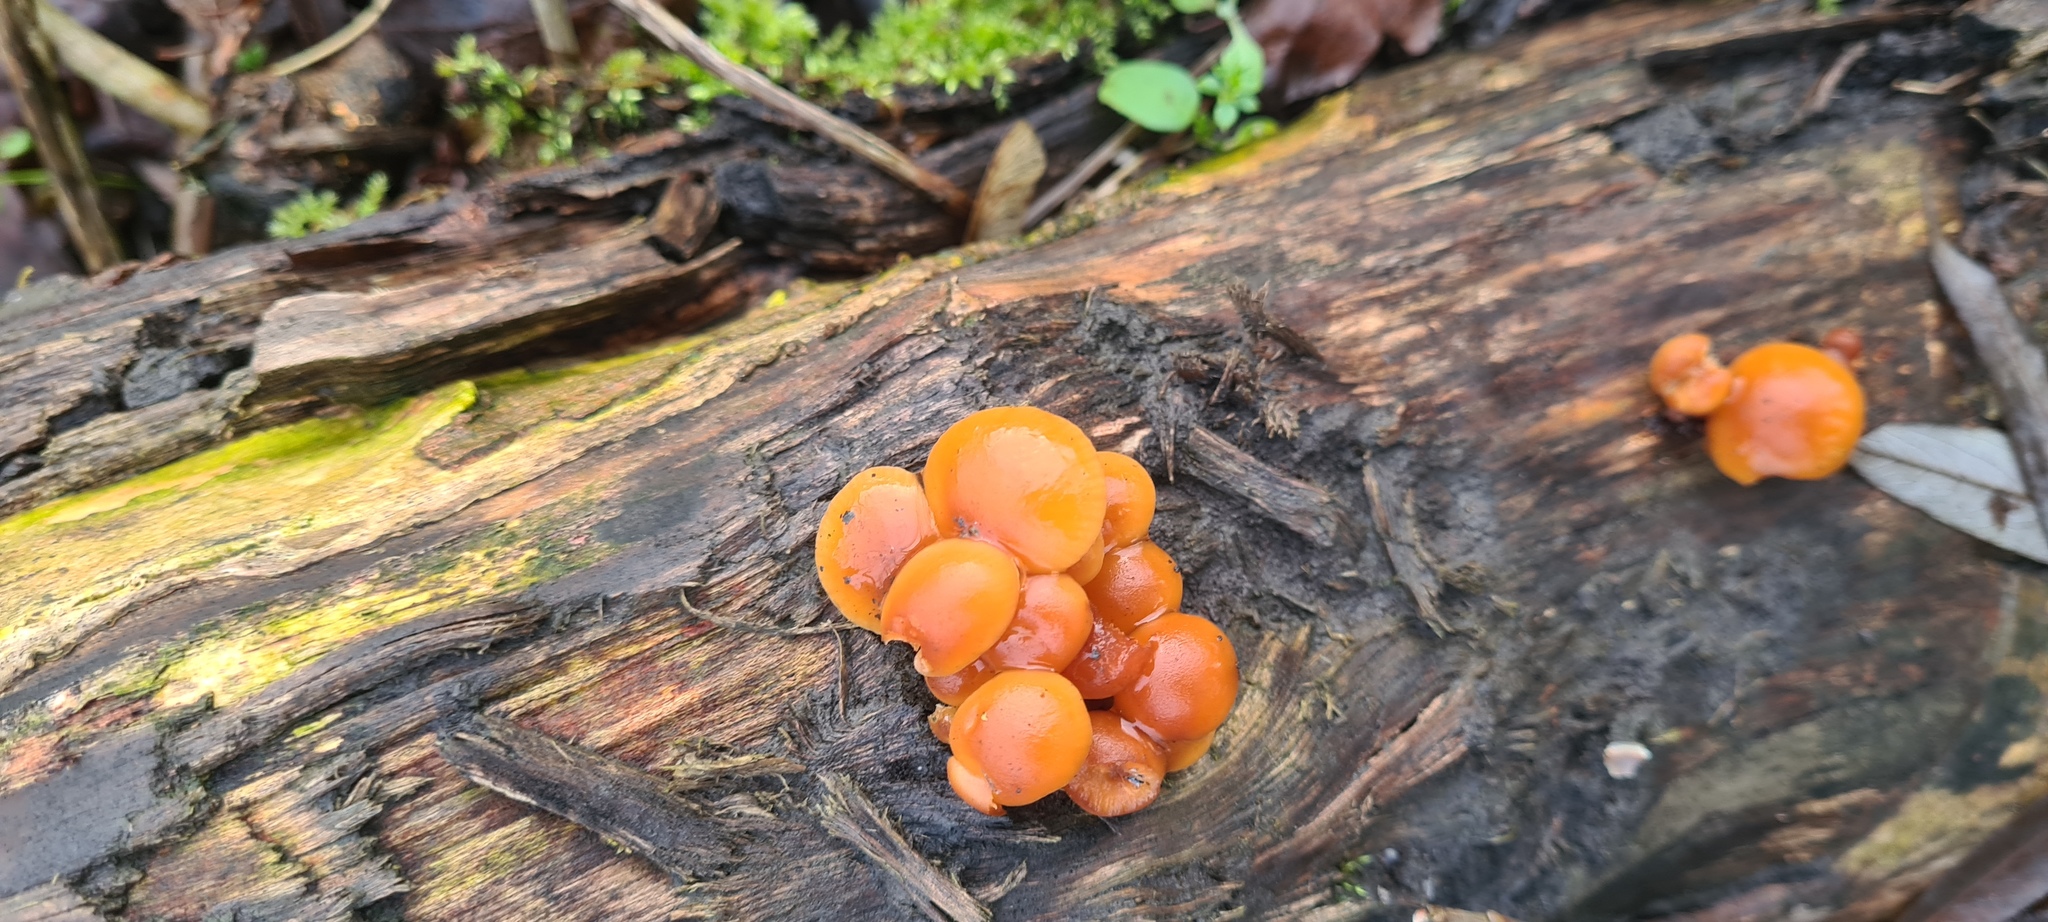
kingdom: Fungi
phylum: Basidiomycota
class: Agaricomycetes
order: Agaricales
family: Physalacriaceae
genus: Flammulina
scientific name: Flammulina
